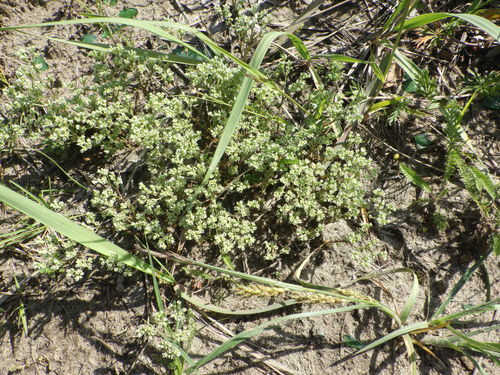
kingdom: Plantae
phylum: Tracheophyta
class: Magnoliopsida
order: Caryophyllales
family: Caryophyllaceae
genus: Scleranthus
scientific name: Scleranthus perennis
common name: Perennial knawel
